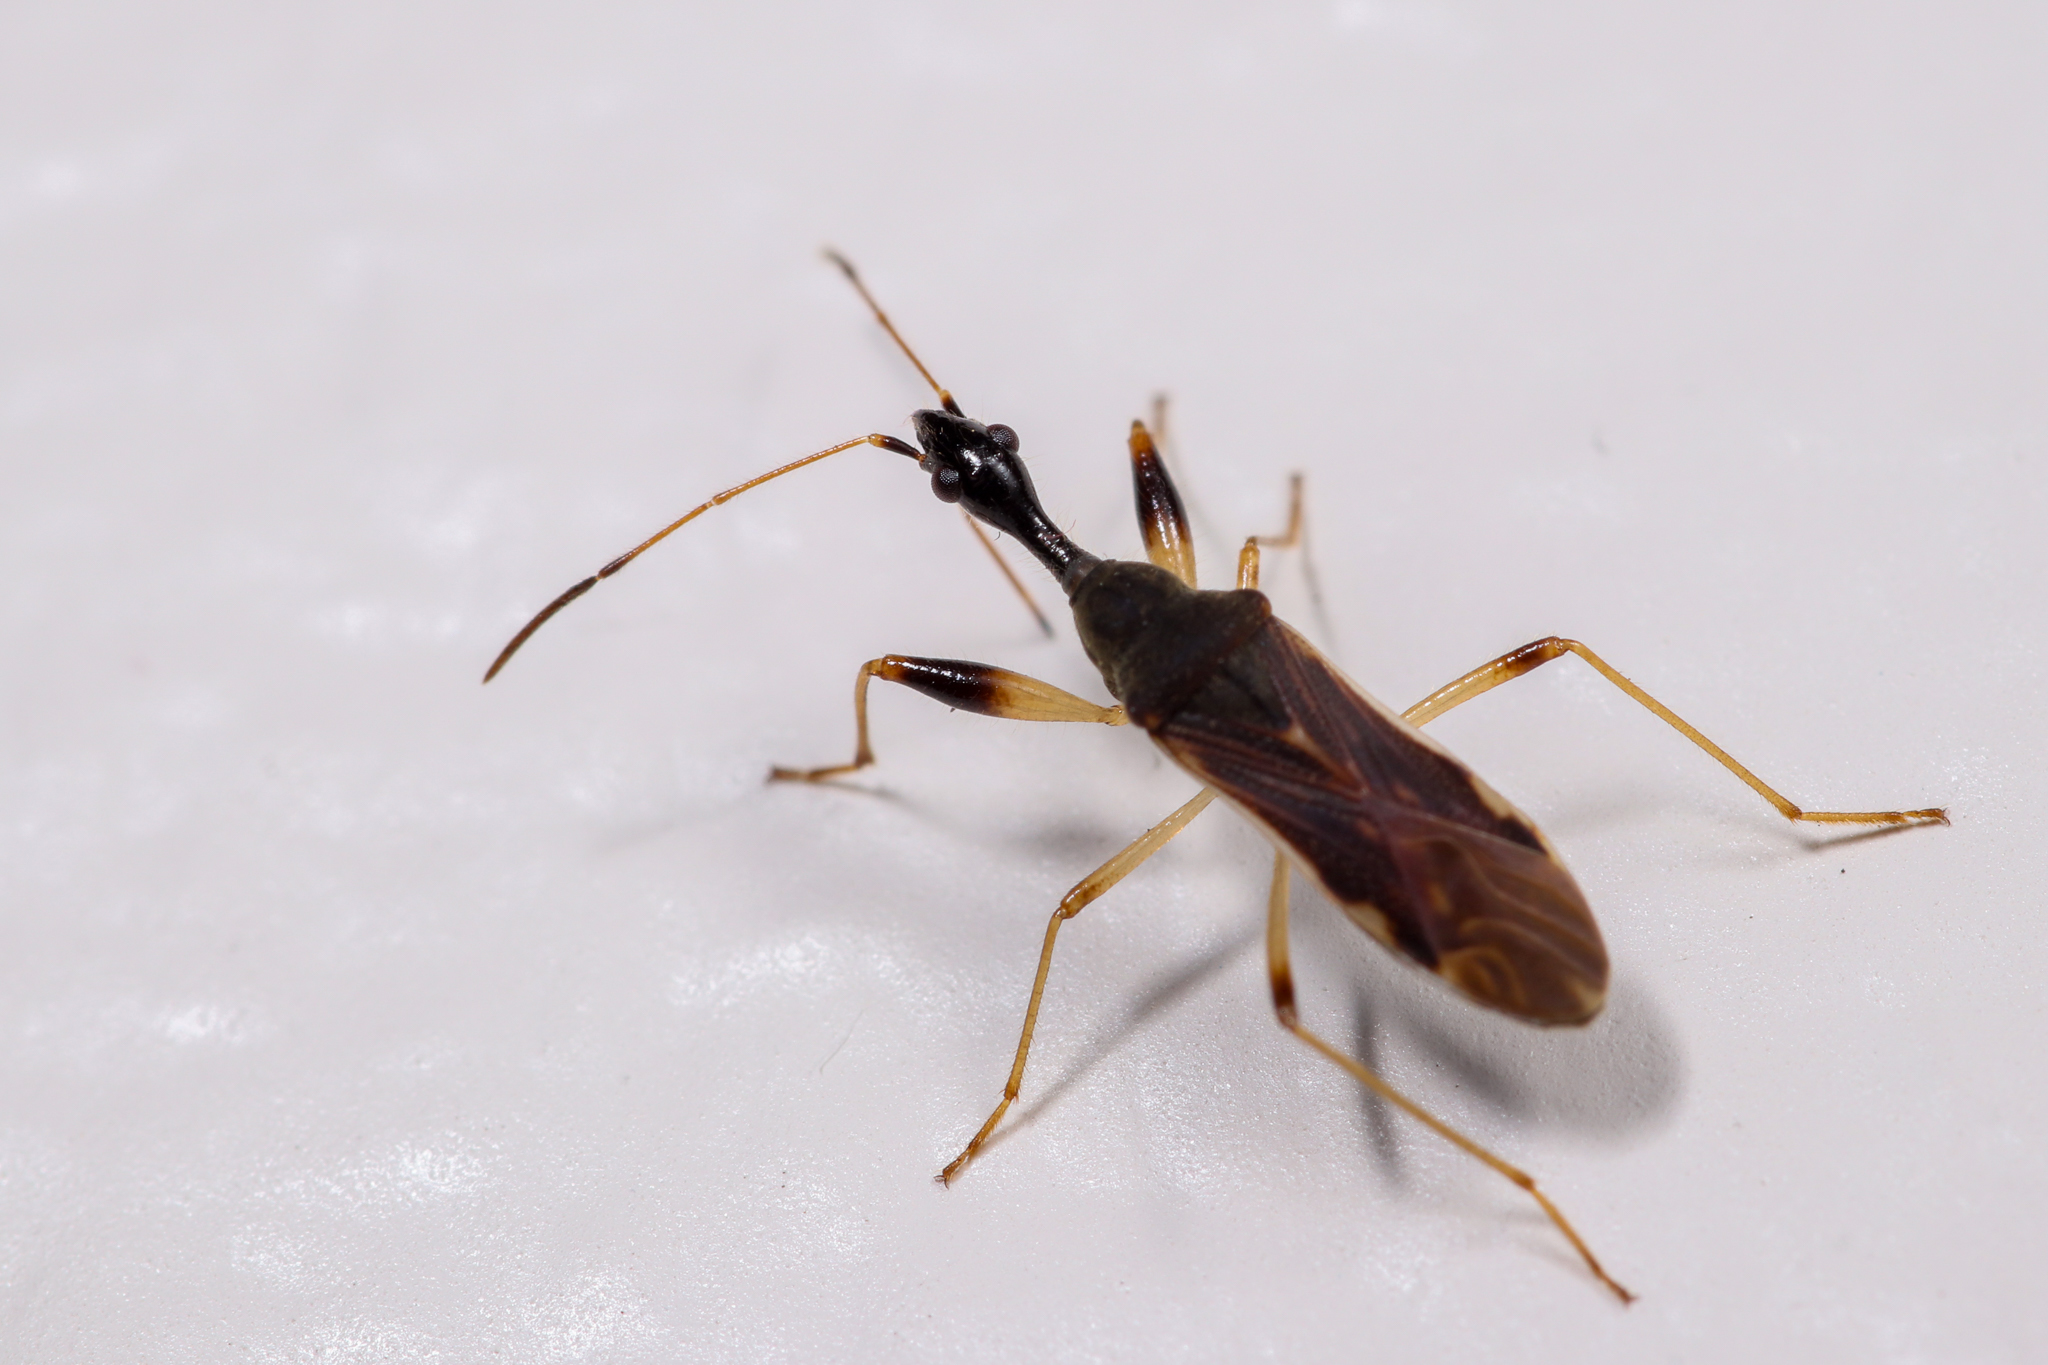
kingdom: Animalia
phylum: Arthropoda
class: Insecta
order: Hemiptera
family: Rhyparochromidae
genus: Myodocha
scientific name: Myodocha serripes
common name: Long-necked seed bug
